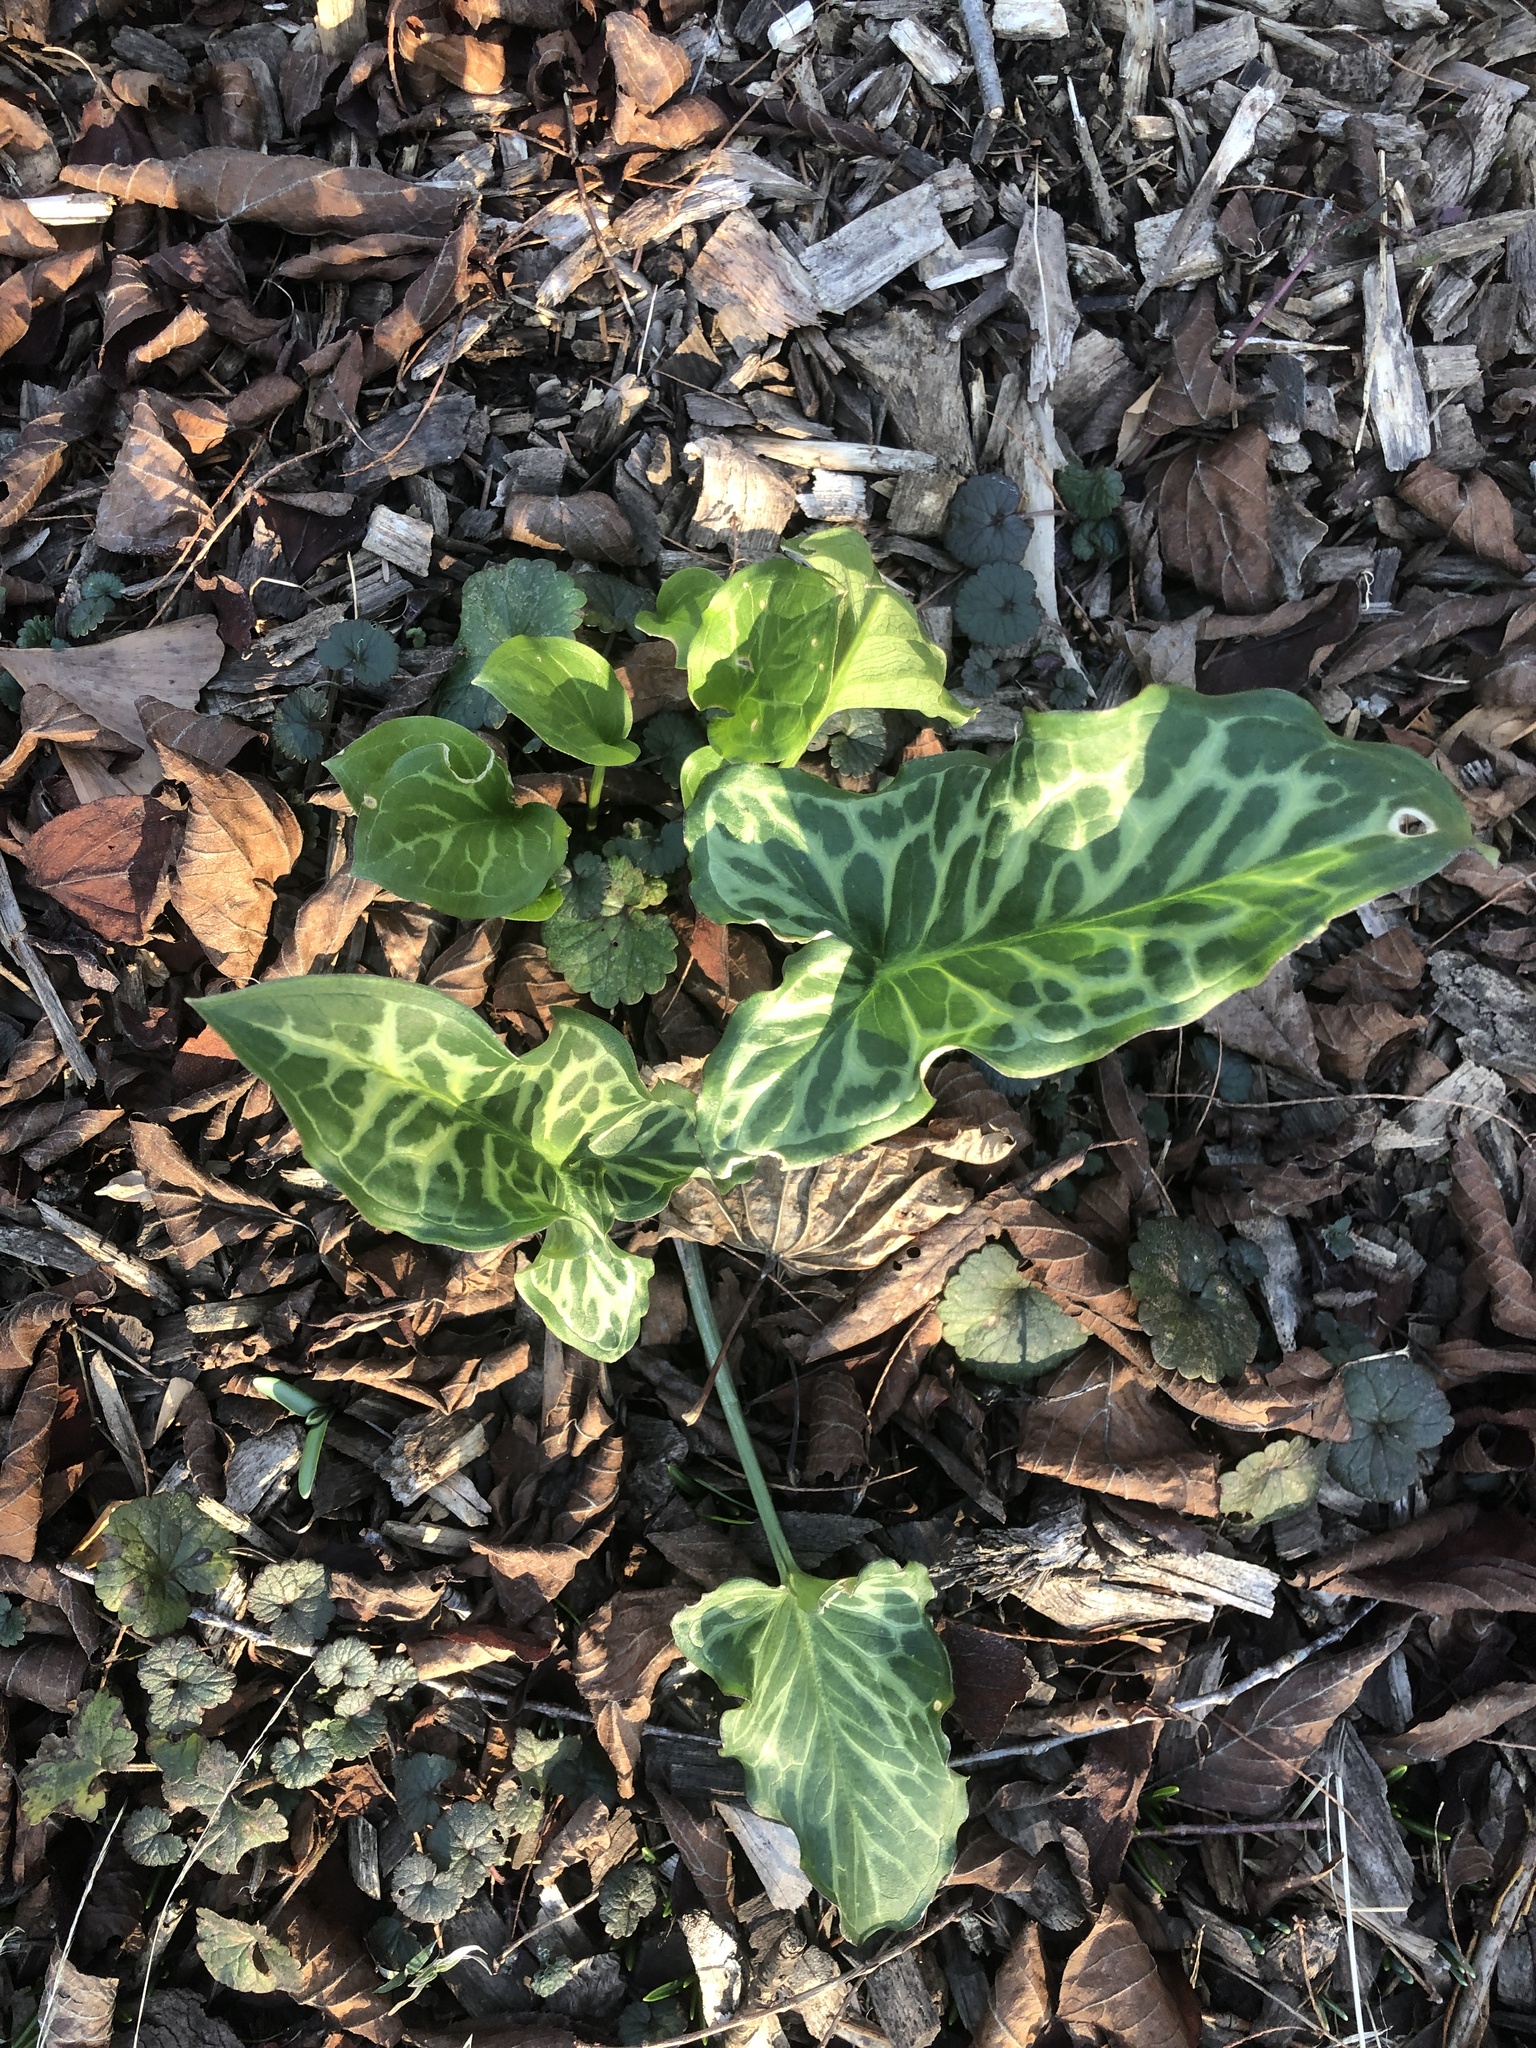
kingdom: Plantae
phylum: Tracheophyta
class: Liliopsida
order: Alismatales
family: Araceae
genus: Arum
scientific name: Arum italicum
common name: Italian lords-and-ladies
